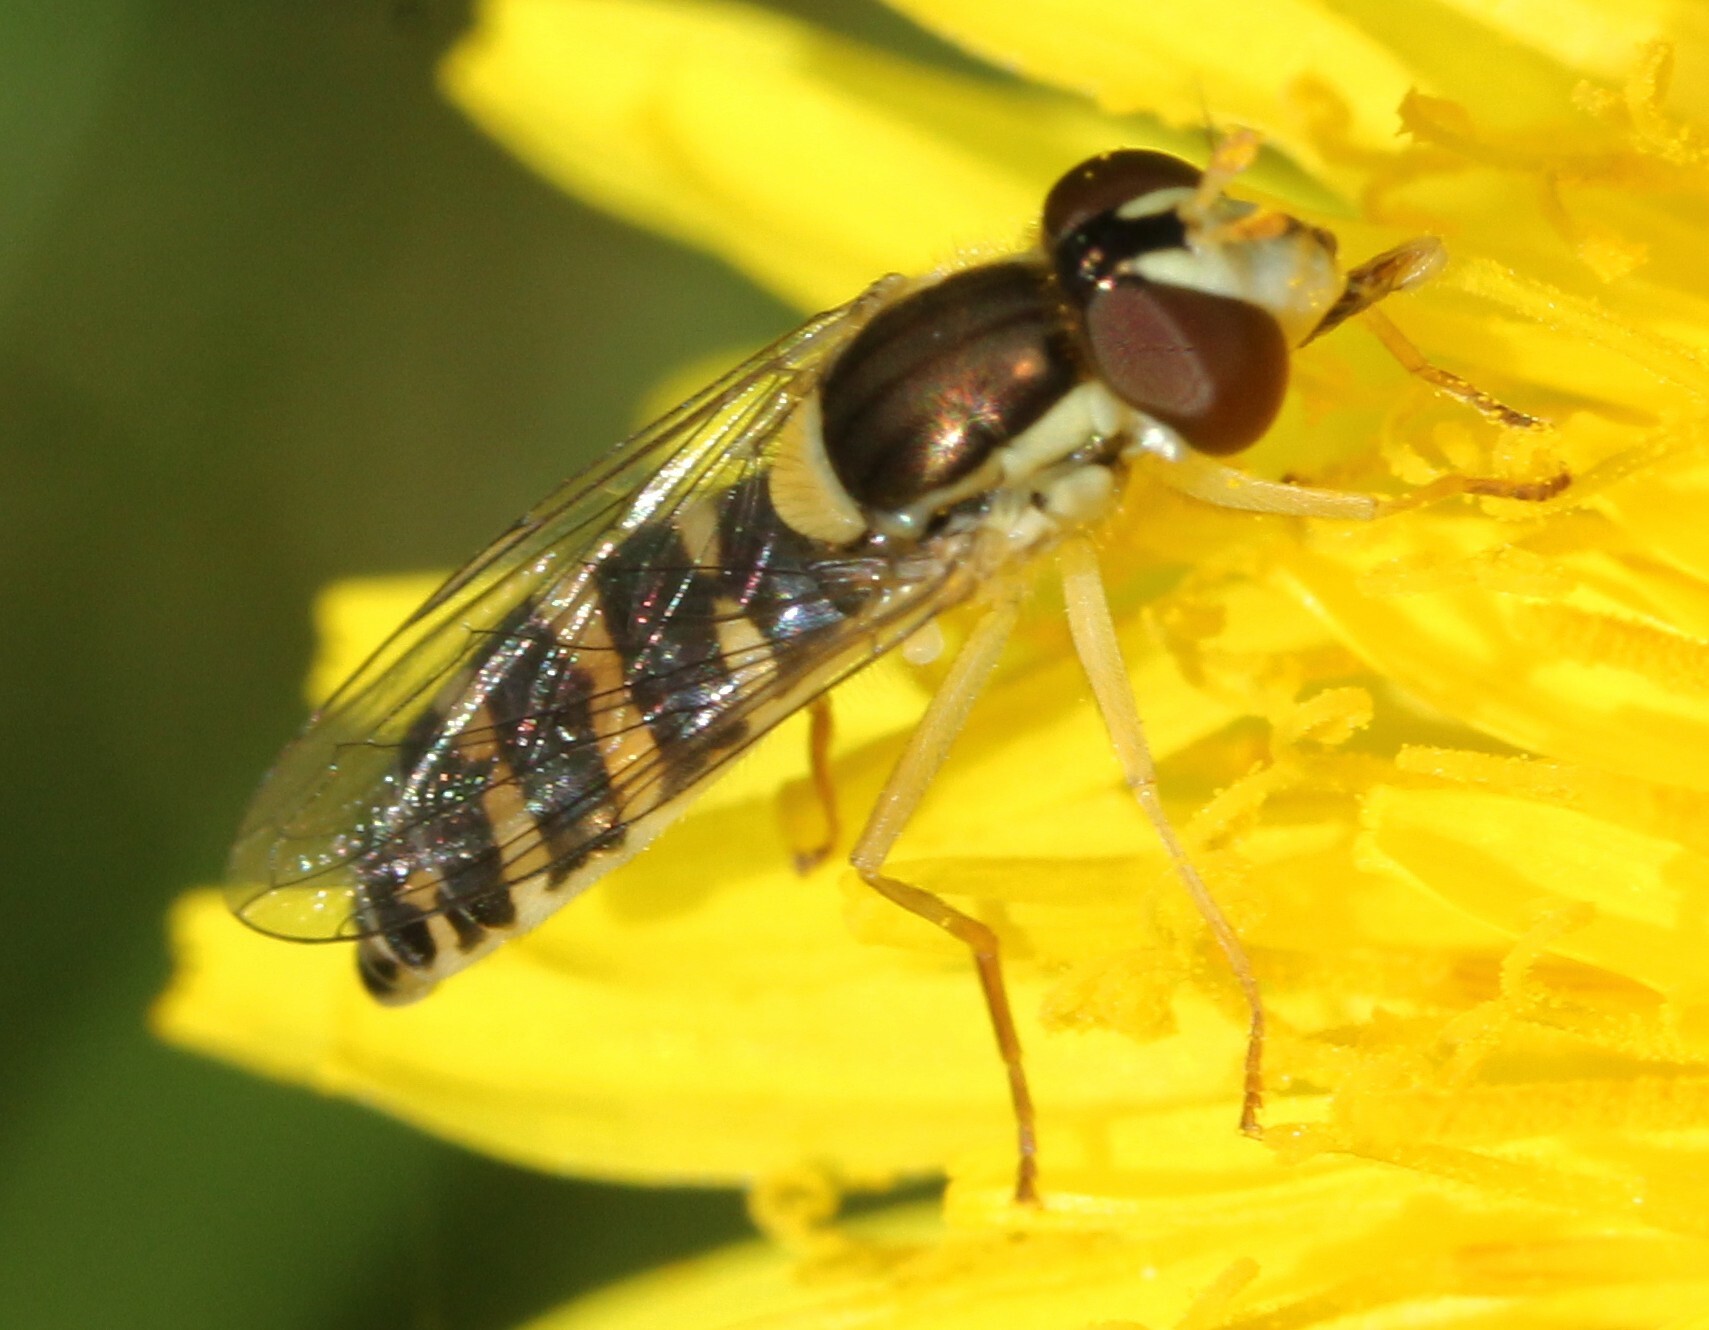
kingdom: Animalia
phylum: Arthropoda
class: Insecta
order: Diptera
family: Syrphidae
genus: Sphaerophoria
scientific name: Sphaerophoria
